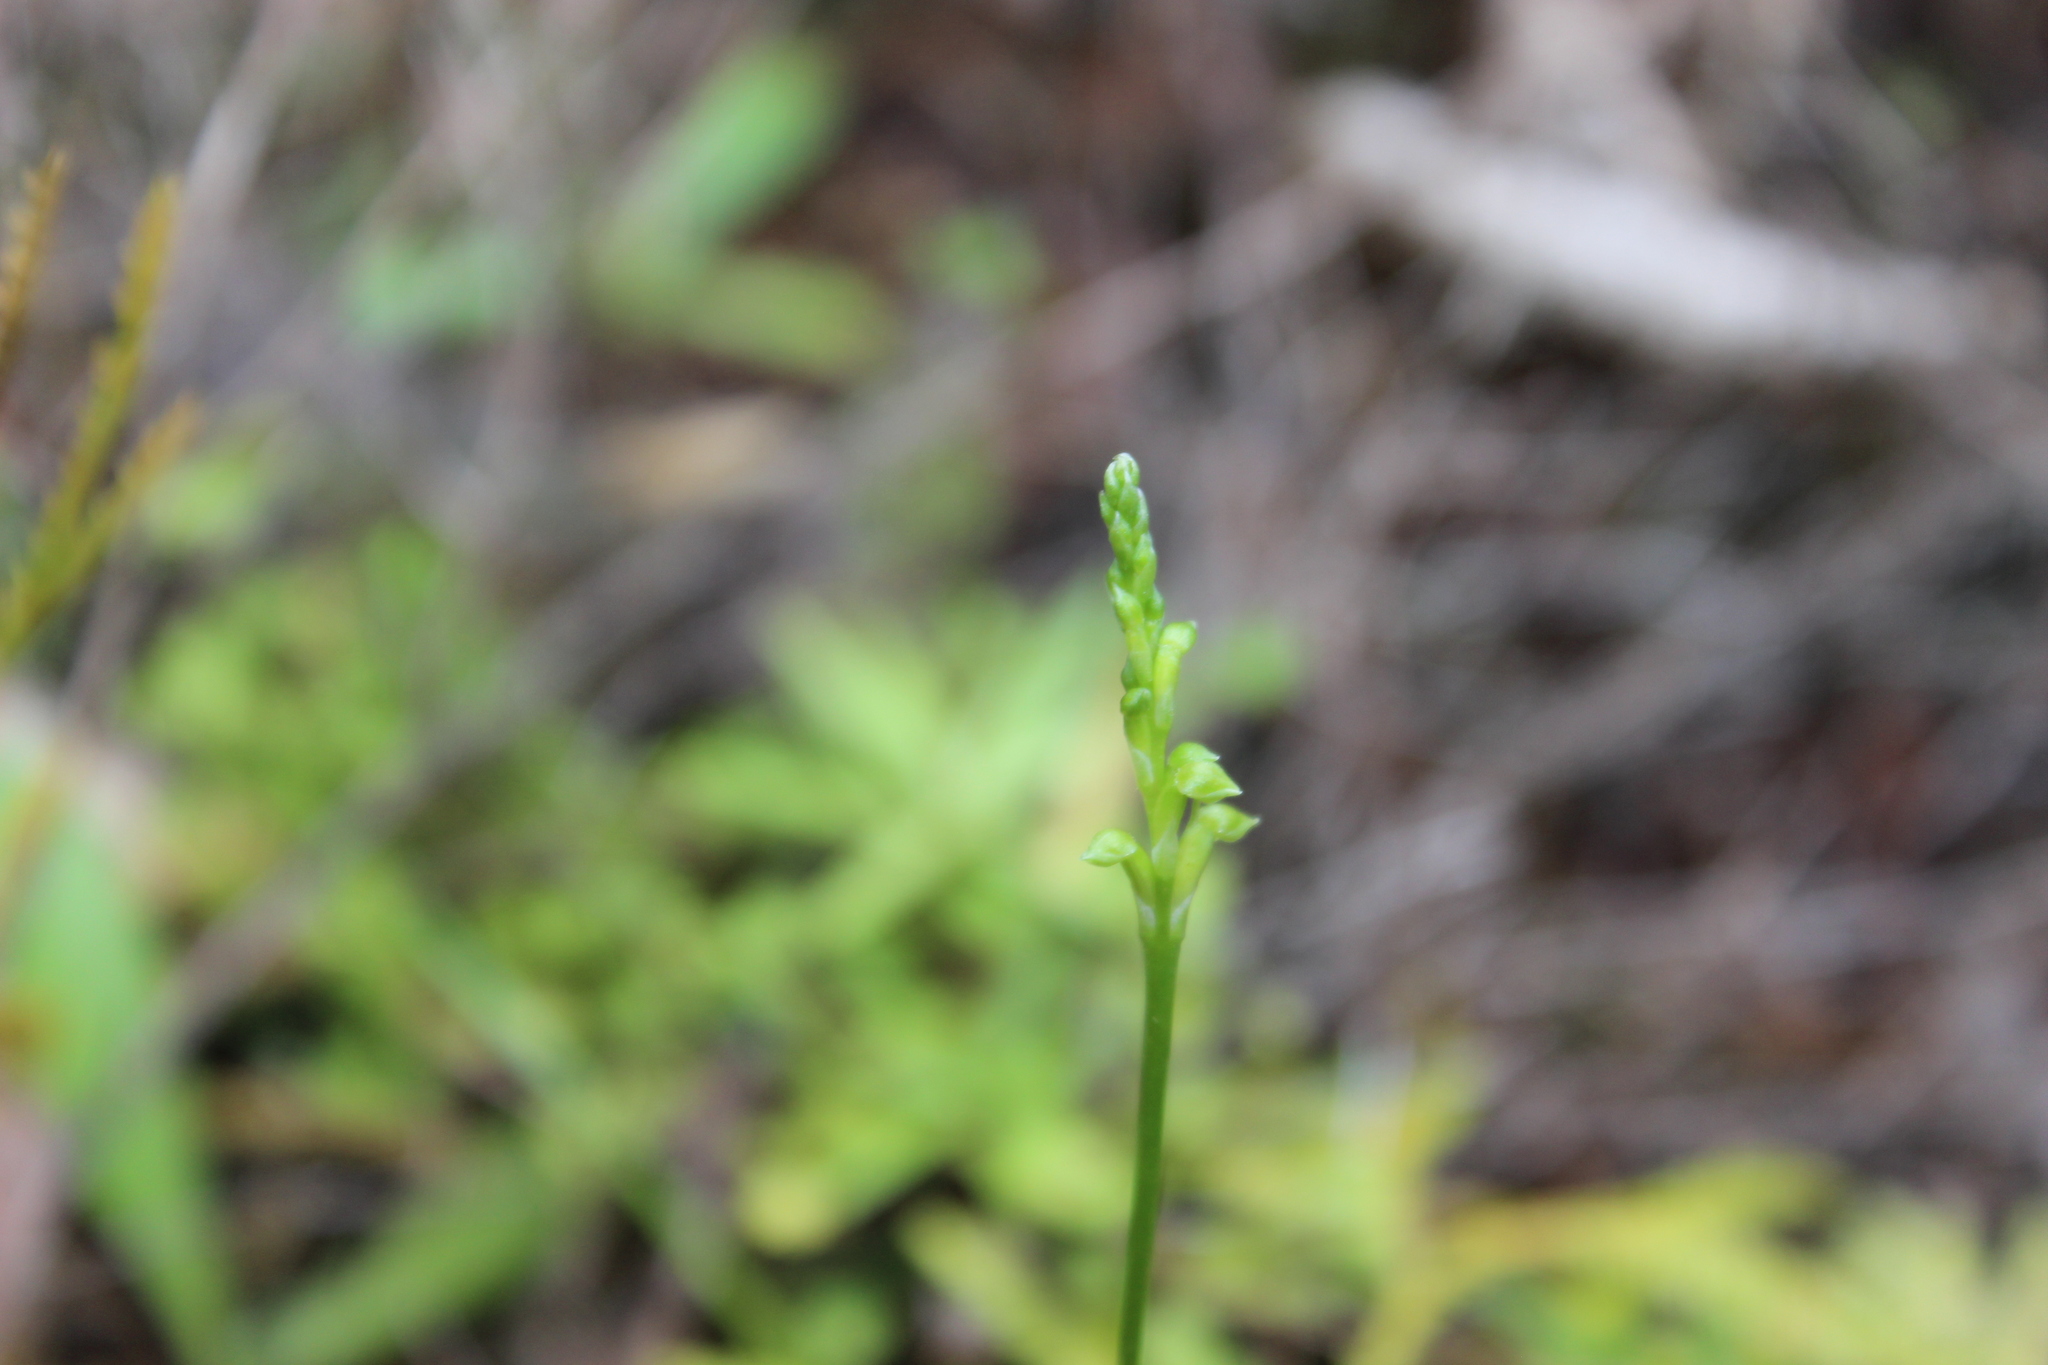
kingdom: Plantae
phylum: Tracheophyta
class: Liliopsida
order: Asparagales
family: Orchidaceae
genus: Microtis
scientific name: Microtis unifolia
